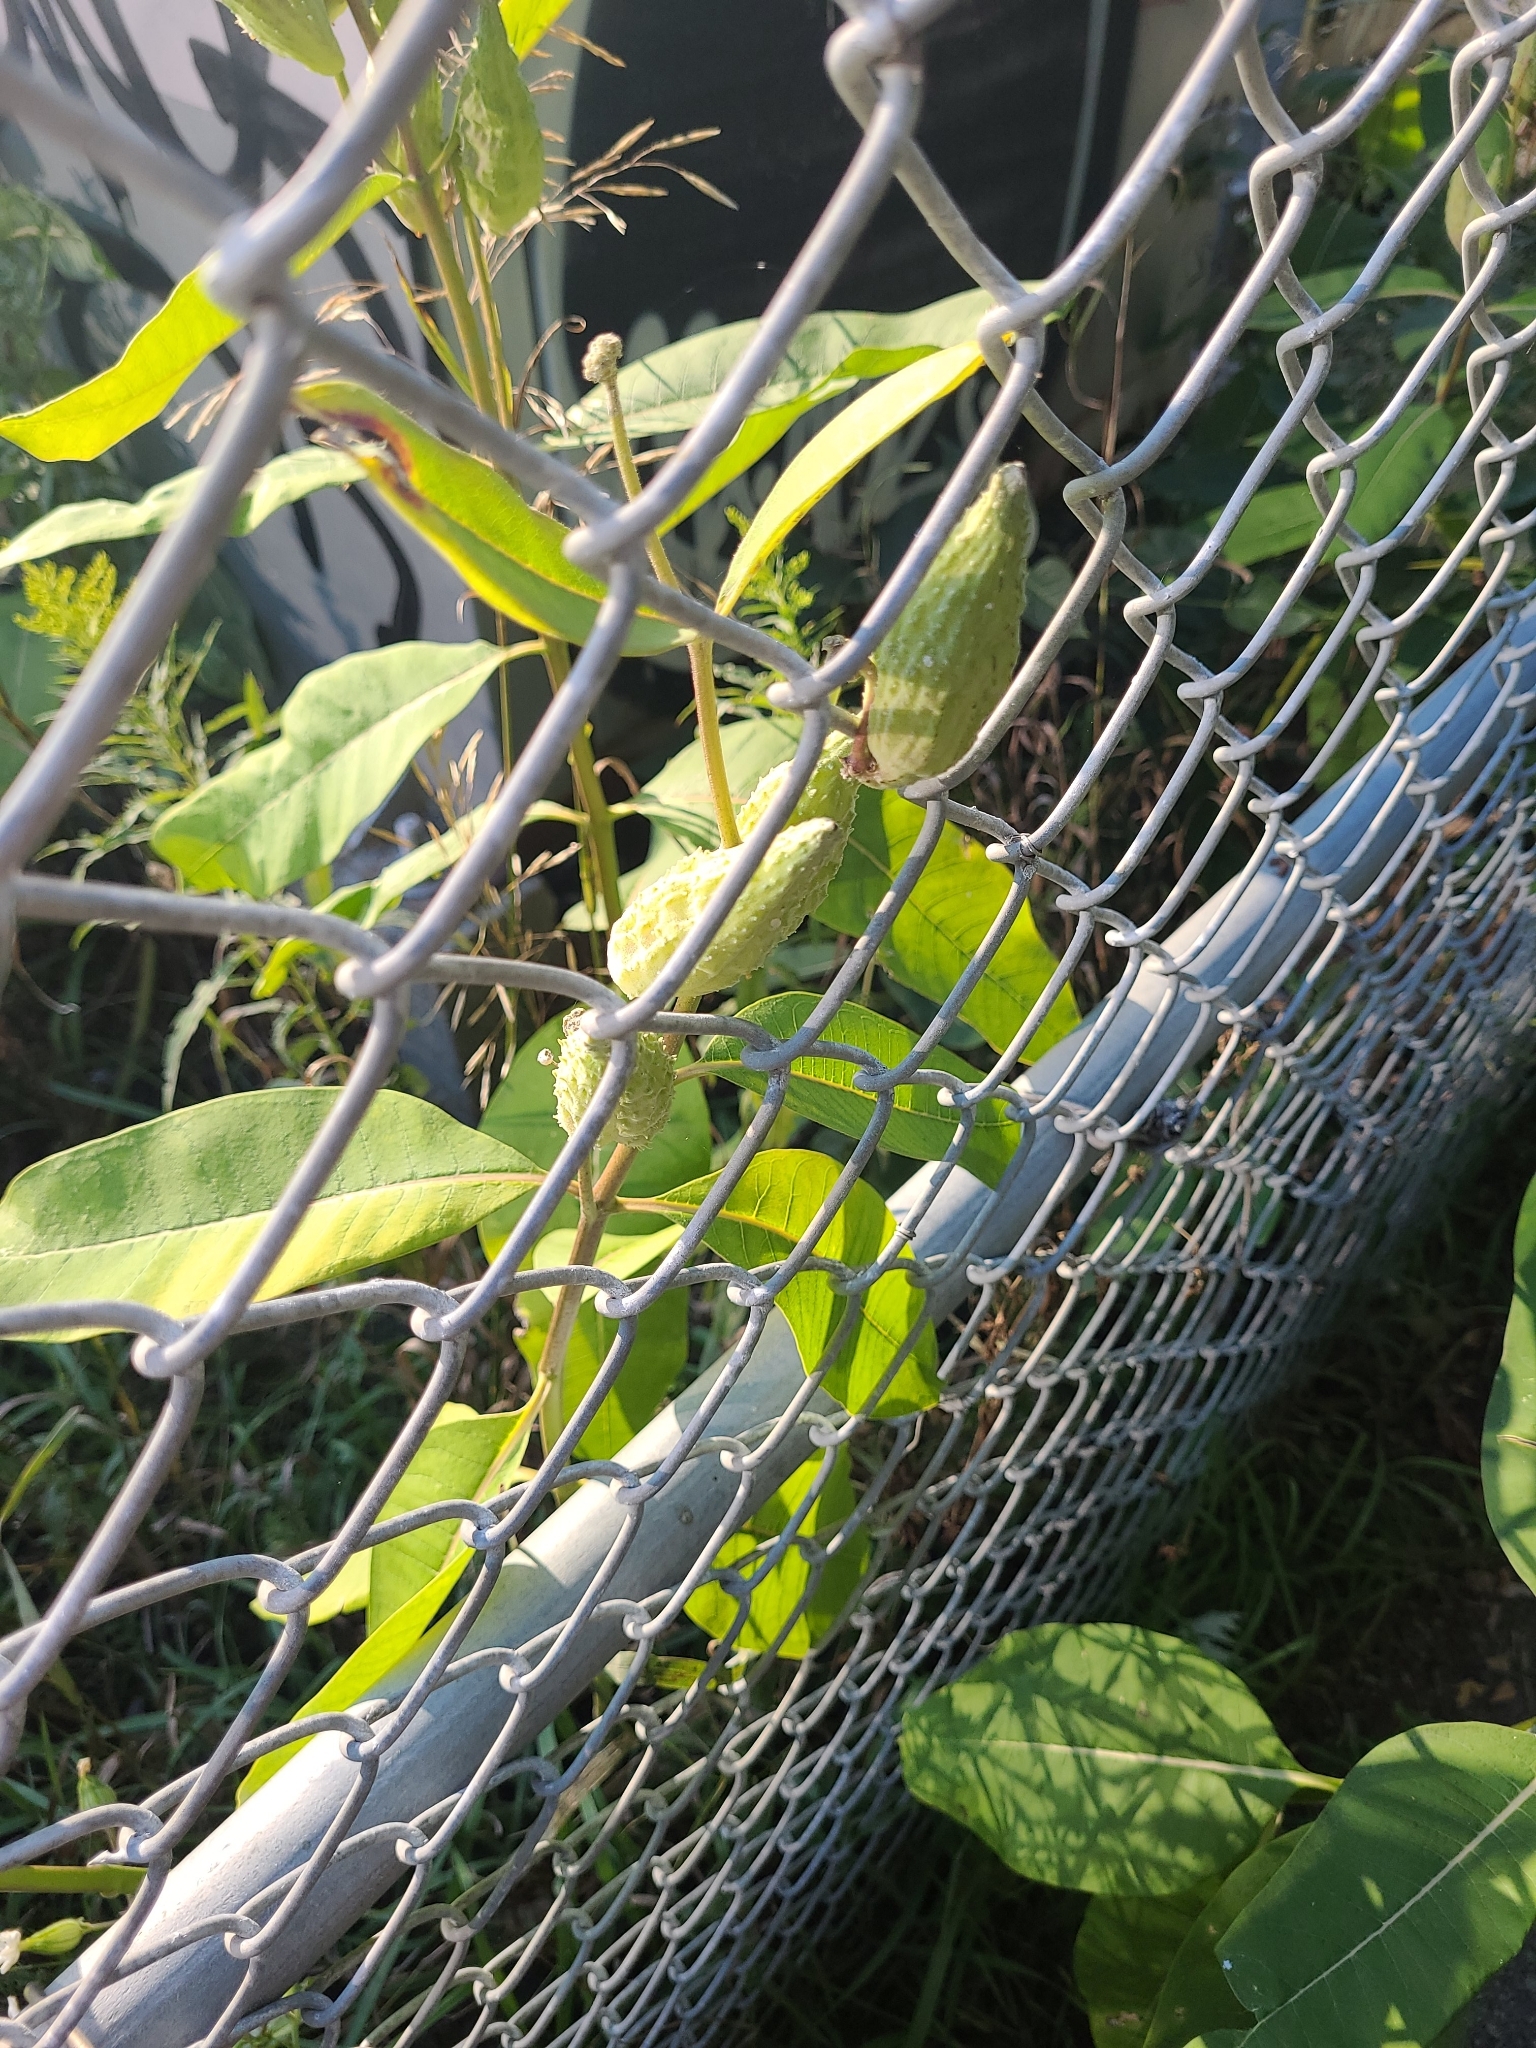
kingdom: Plantae
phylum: Tracheophyta
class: Magnoliopsida
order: Gentianales
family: Apocynaceae
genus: Asclepias
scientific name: Asclepias syriaca
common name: Common milkweed
